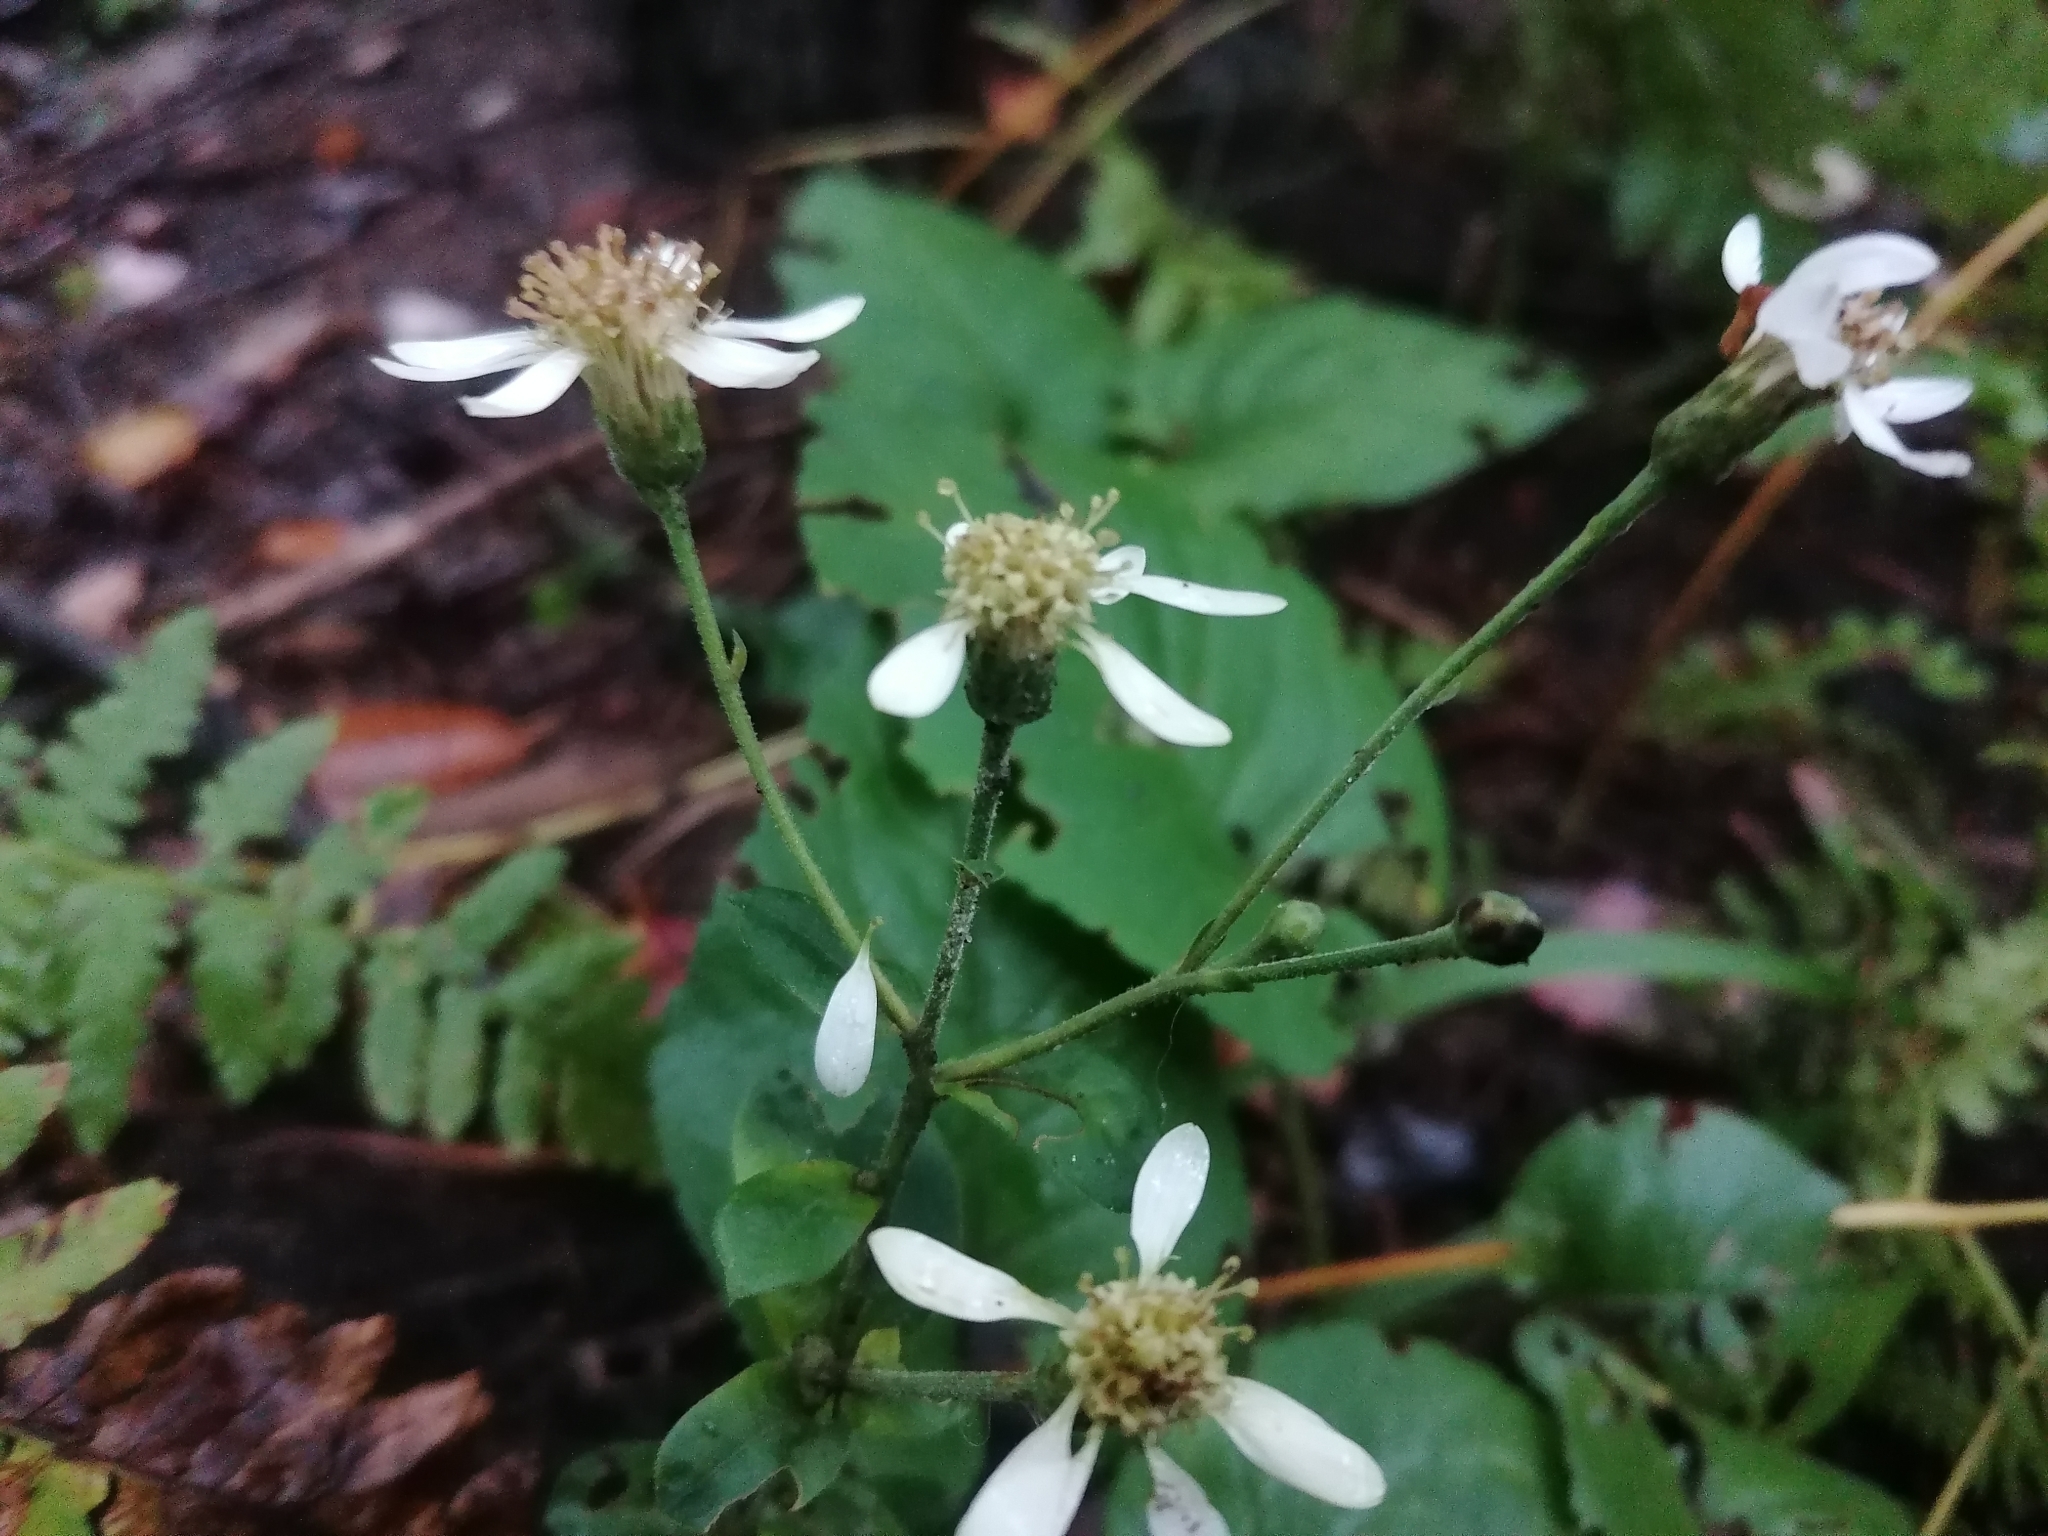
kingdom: Plantae
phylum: Tracheophyta
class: Magnoliopsida
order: Asterales
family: Asteraceae
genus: Eurybia
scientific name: Eurybia macrophylla
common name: Big-leaved aster
